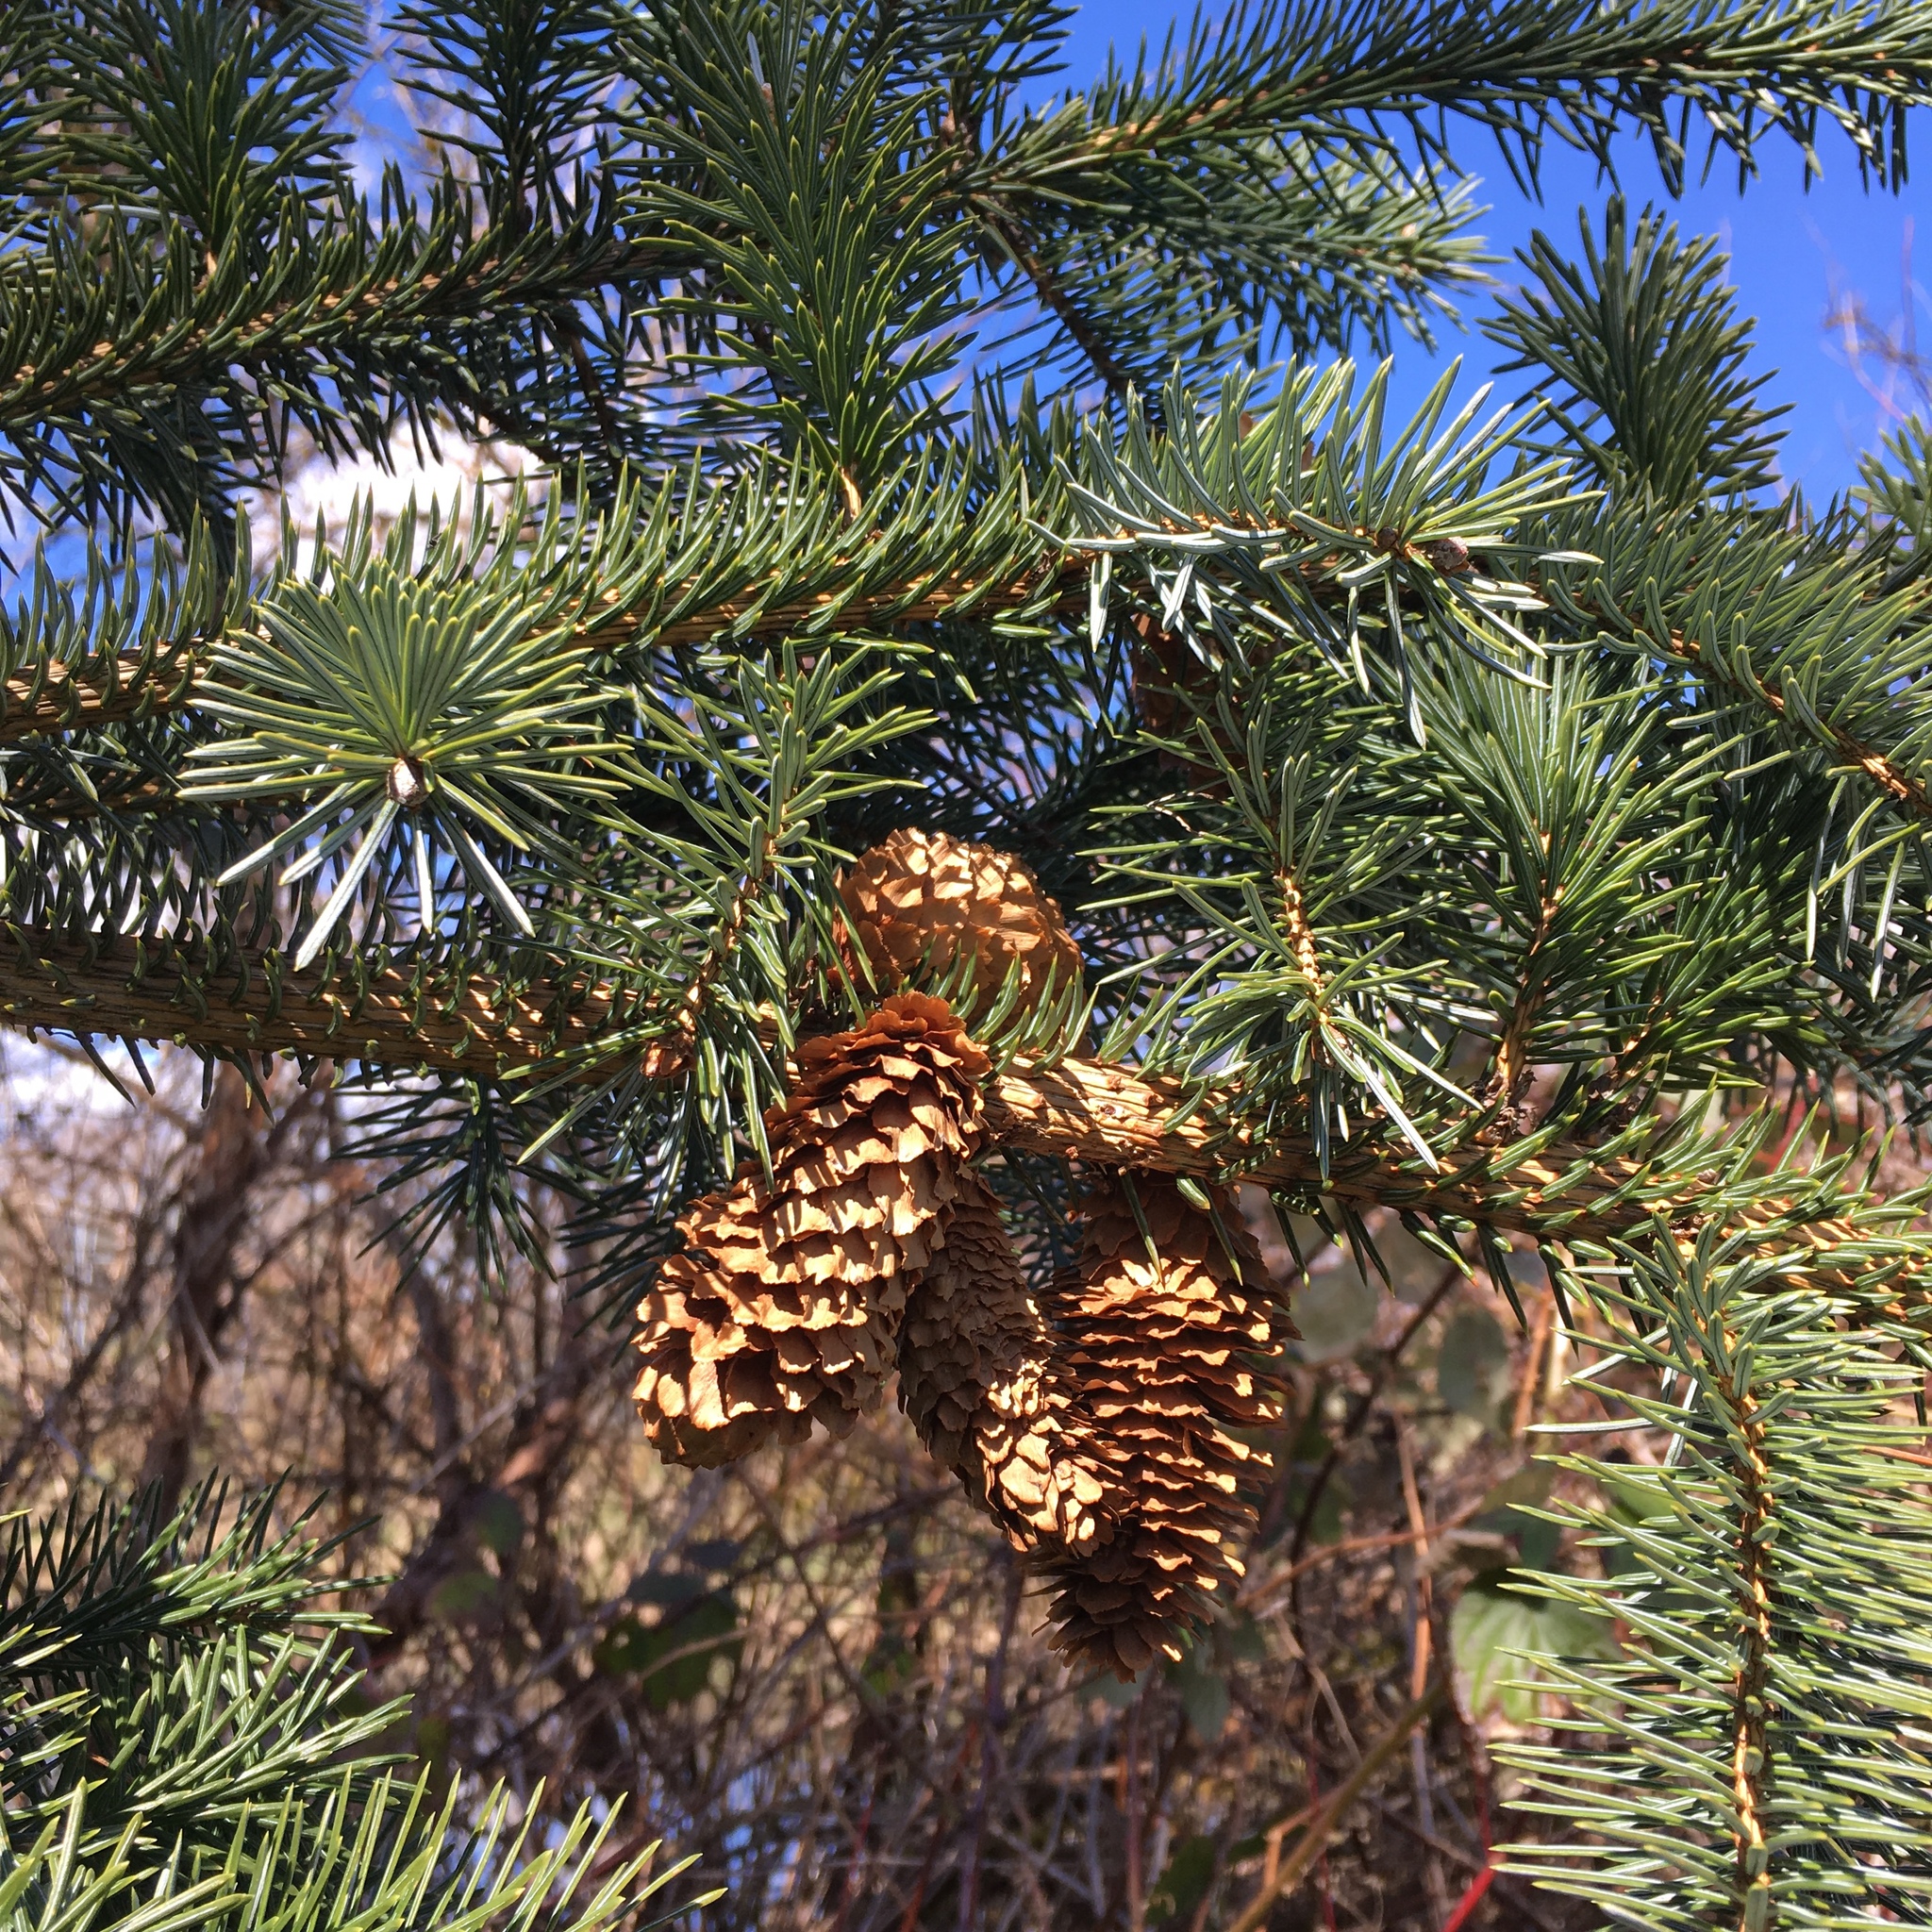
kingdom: Plantae
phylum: Tracheophyta
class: Pinopsida
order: Pinales
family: Pinaceae
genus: Picea
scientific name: Picea sitchensis
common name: Sitka spruce
